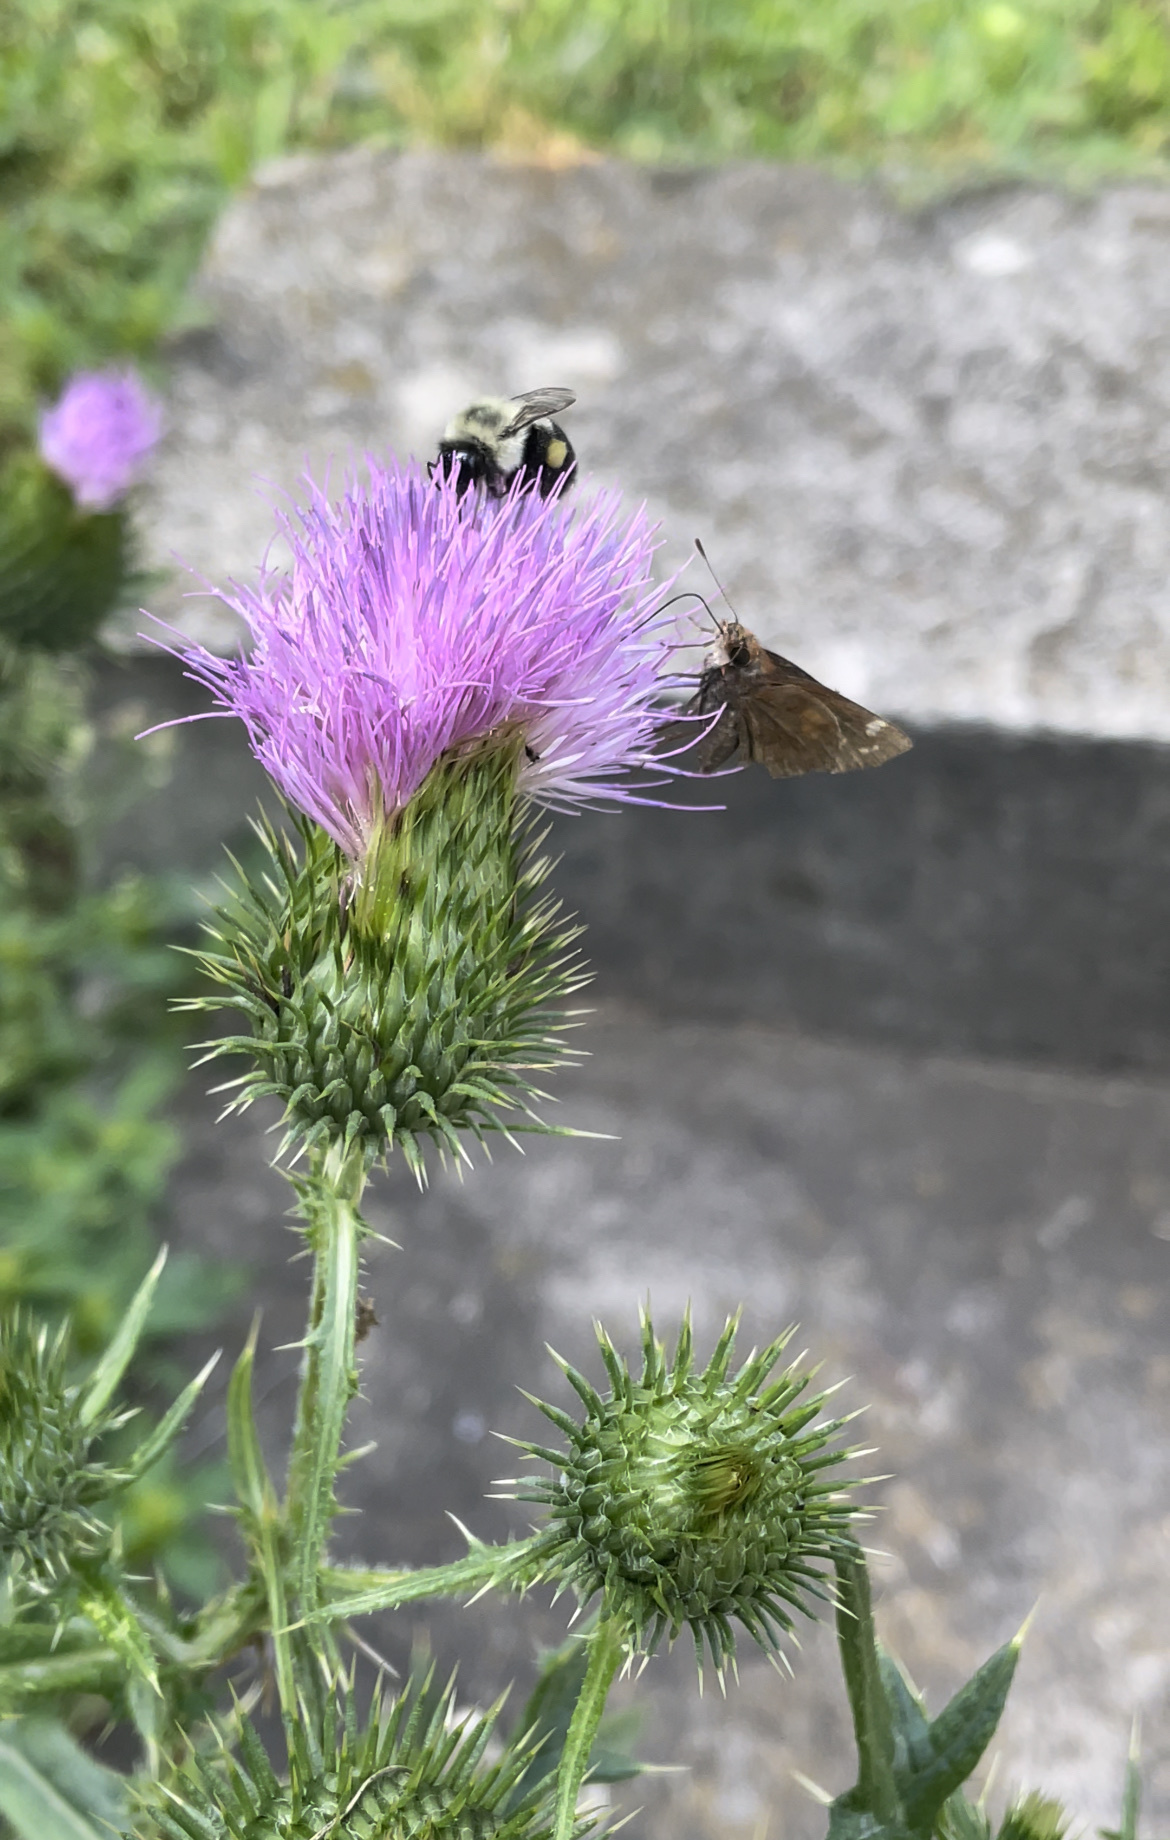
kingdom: Animalia
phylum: Arthropoda
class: Insecta
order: Lepidoptera
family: Hesperiidae
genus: Lon
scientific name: Lon zabulon
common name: Zabulon skipper
